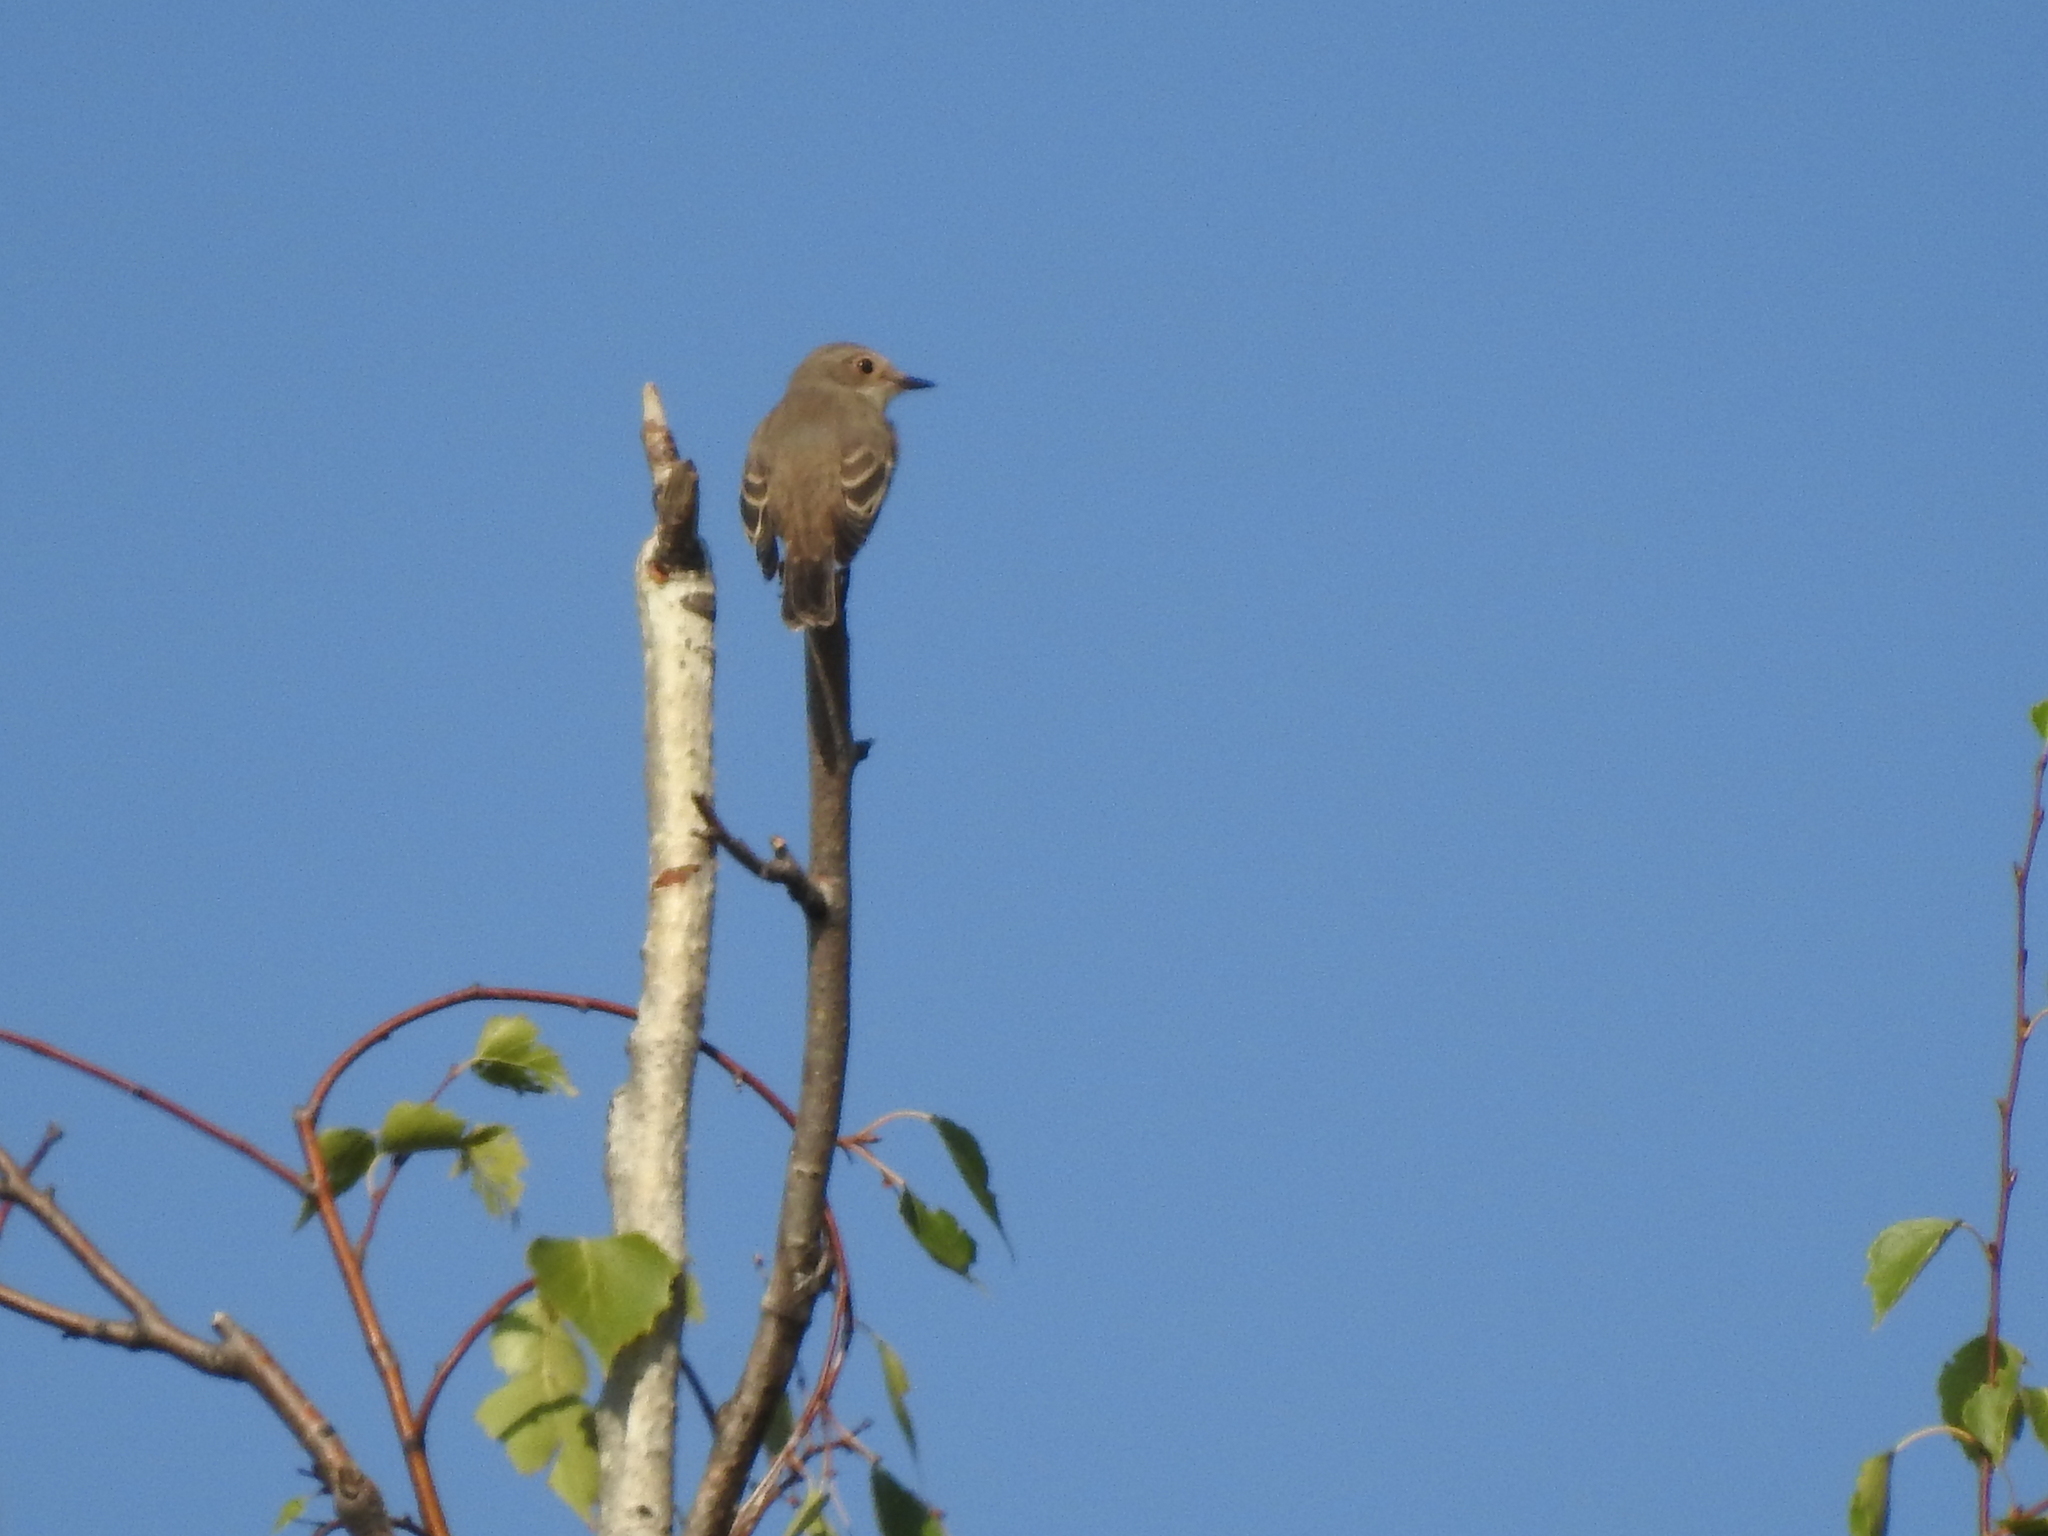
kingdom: Animalia
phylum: Chordata
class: Aves
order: Passeriformes
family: Muscicapidae
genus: Ficedula
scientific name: Ficedula hypoleuca
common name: European pied flycatcher
